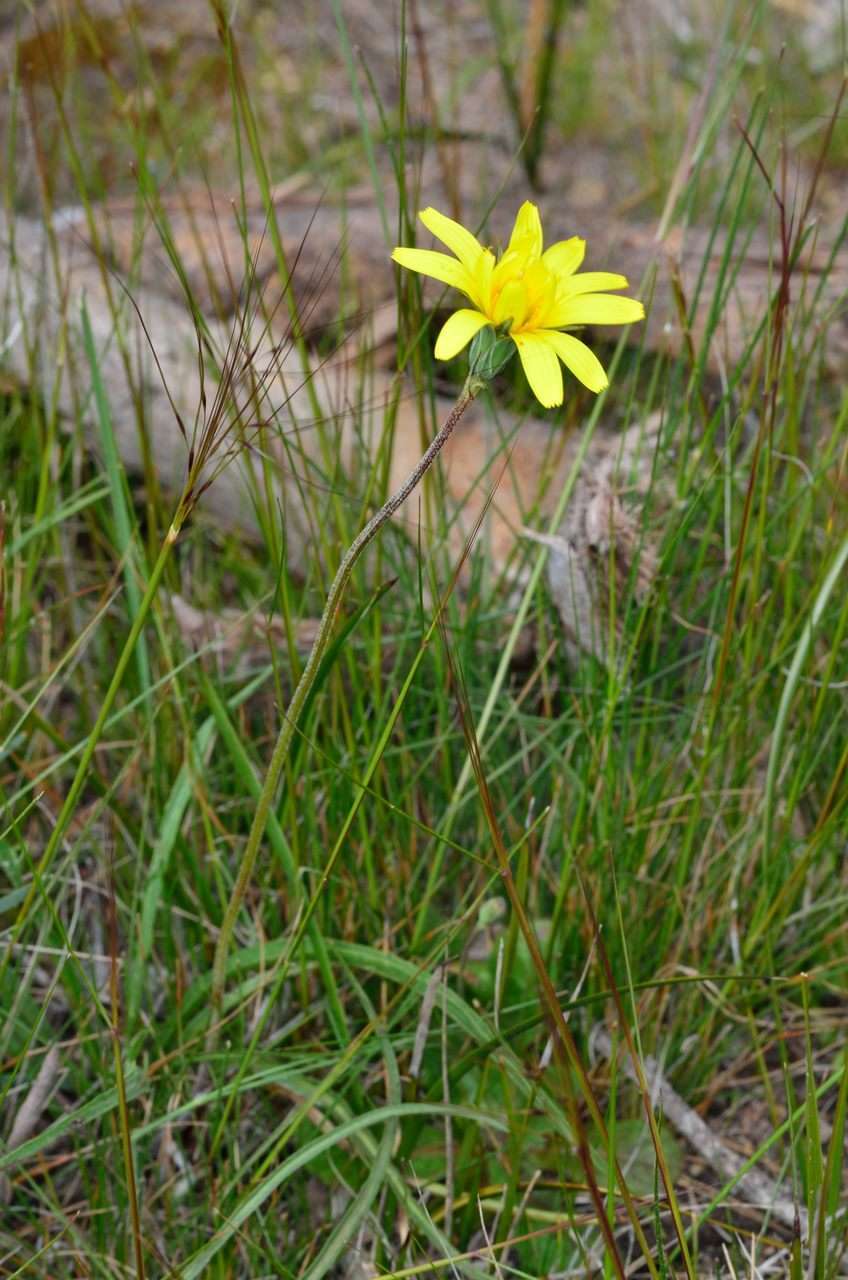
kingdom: Plantae
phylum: Tracheophyta
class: Magnoliopsida
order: Asterales
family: Asteraceae
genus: Microseris
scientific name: Microseris lanceolata
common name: Yam daisy
